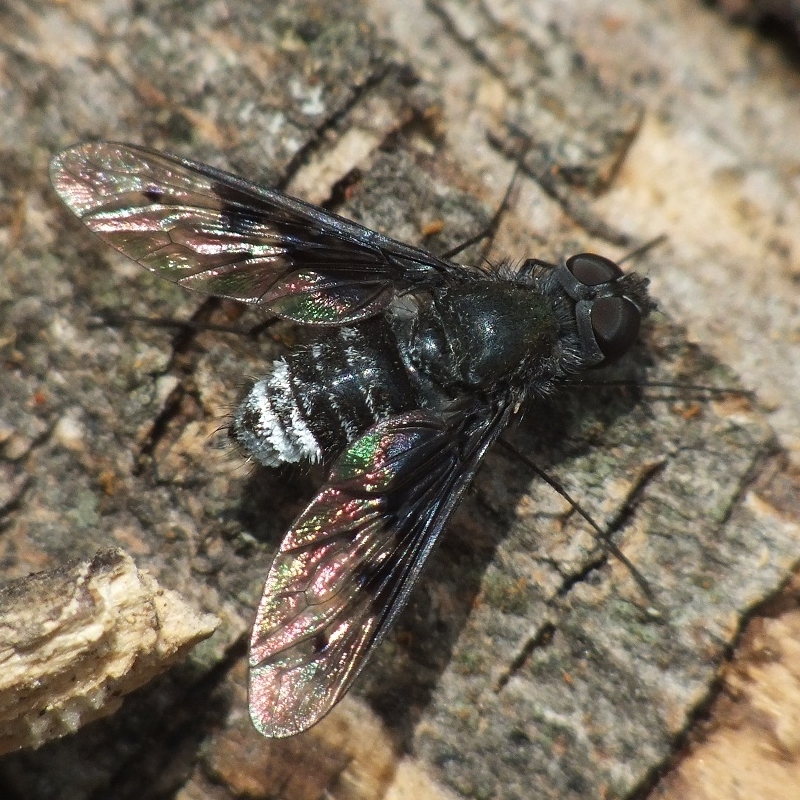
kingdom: Animalia
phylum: Arthropoda
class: Insecta
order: Diptera
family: Bombyliidae
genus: Anthrax
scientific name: Anthrax trifasciatus
